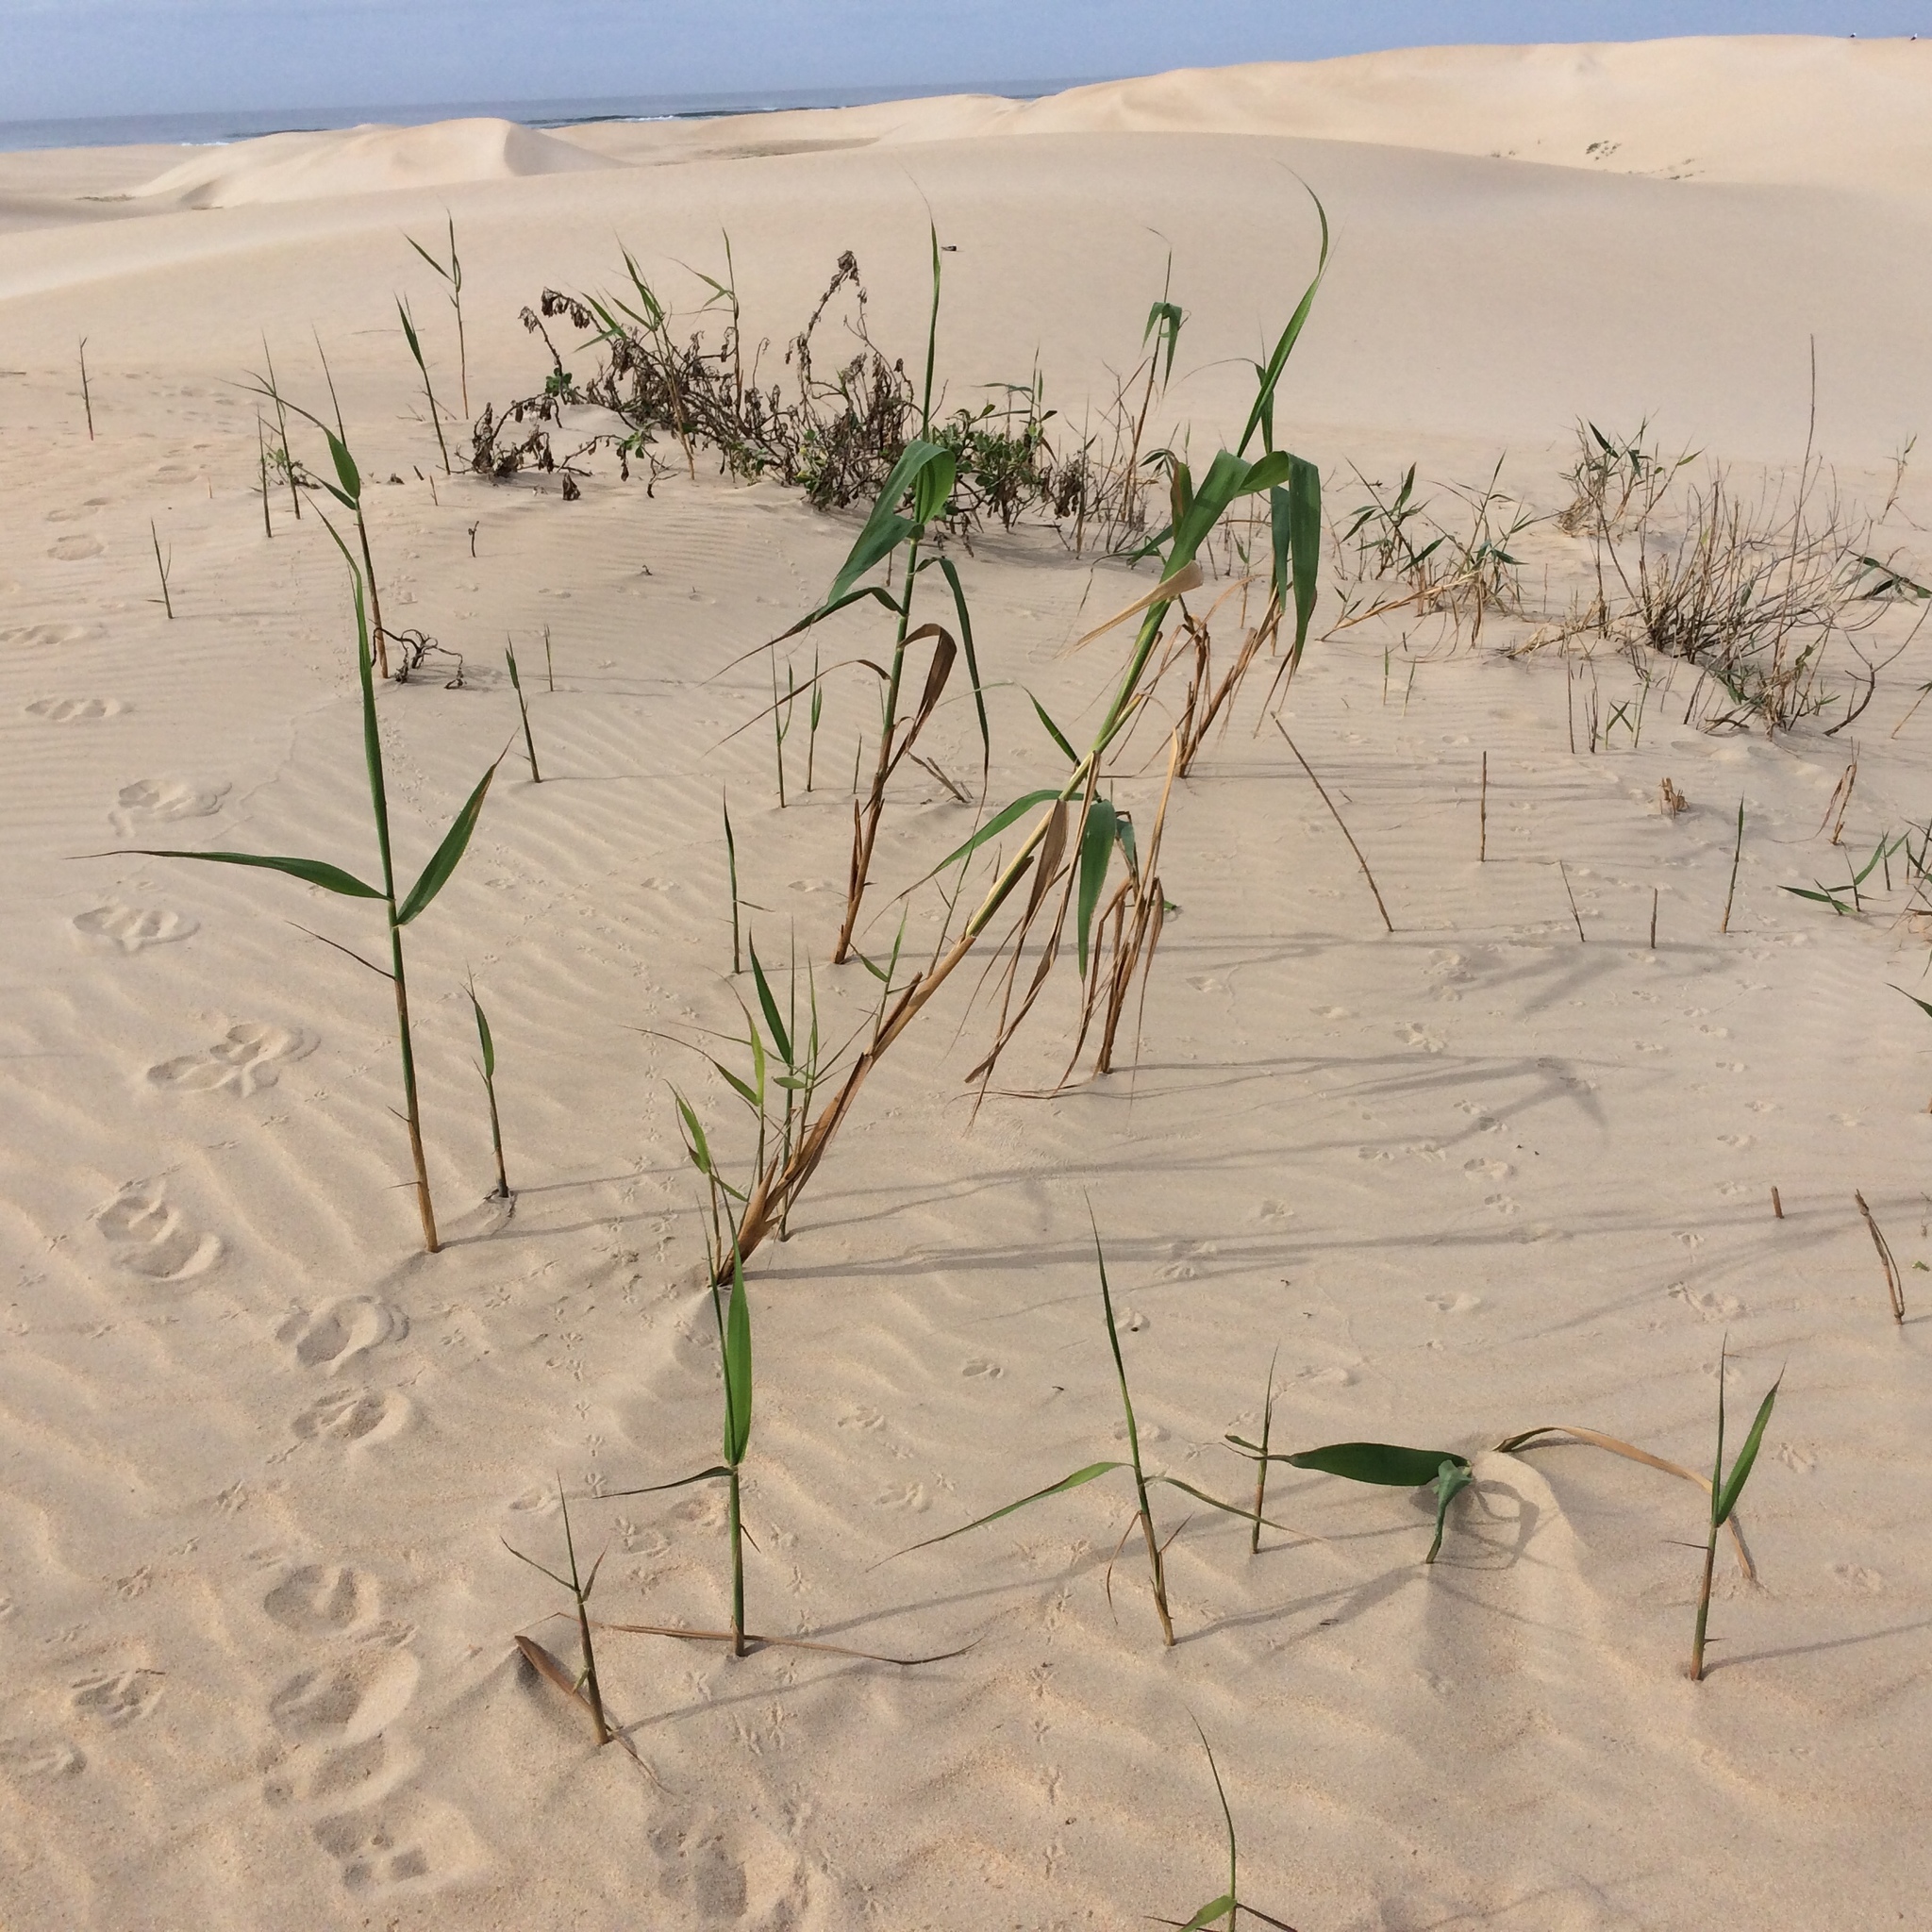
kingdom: Plantae
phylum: Tracheophyta
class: Liliopsida
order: Poales
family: Poaceae
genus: Phragmites
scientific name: Phragmites australis
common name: Common reed
